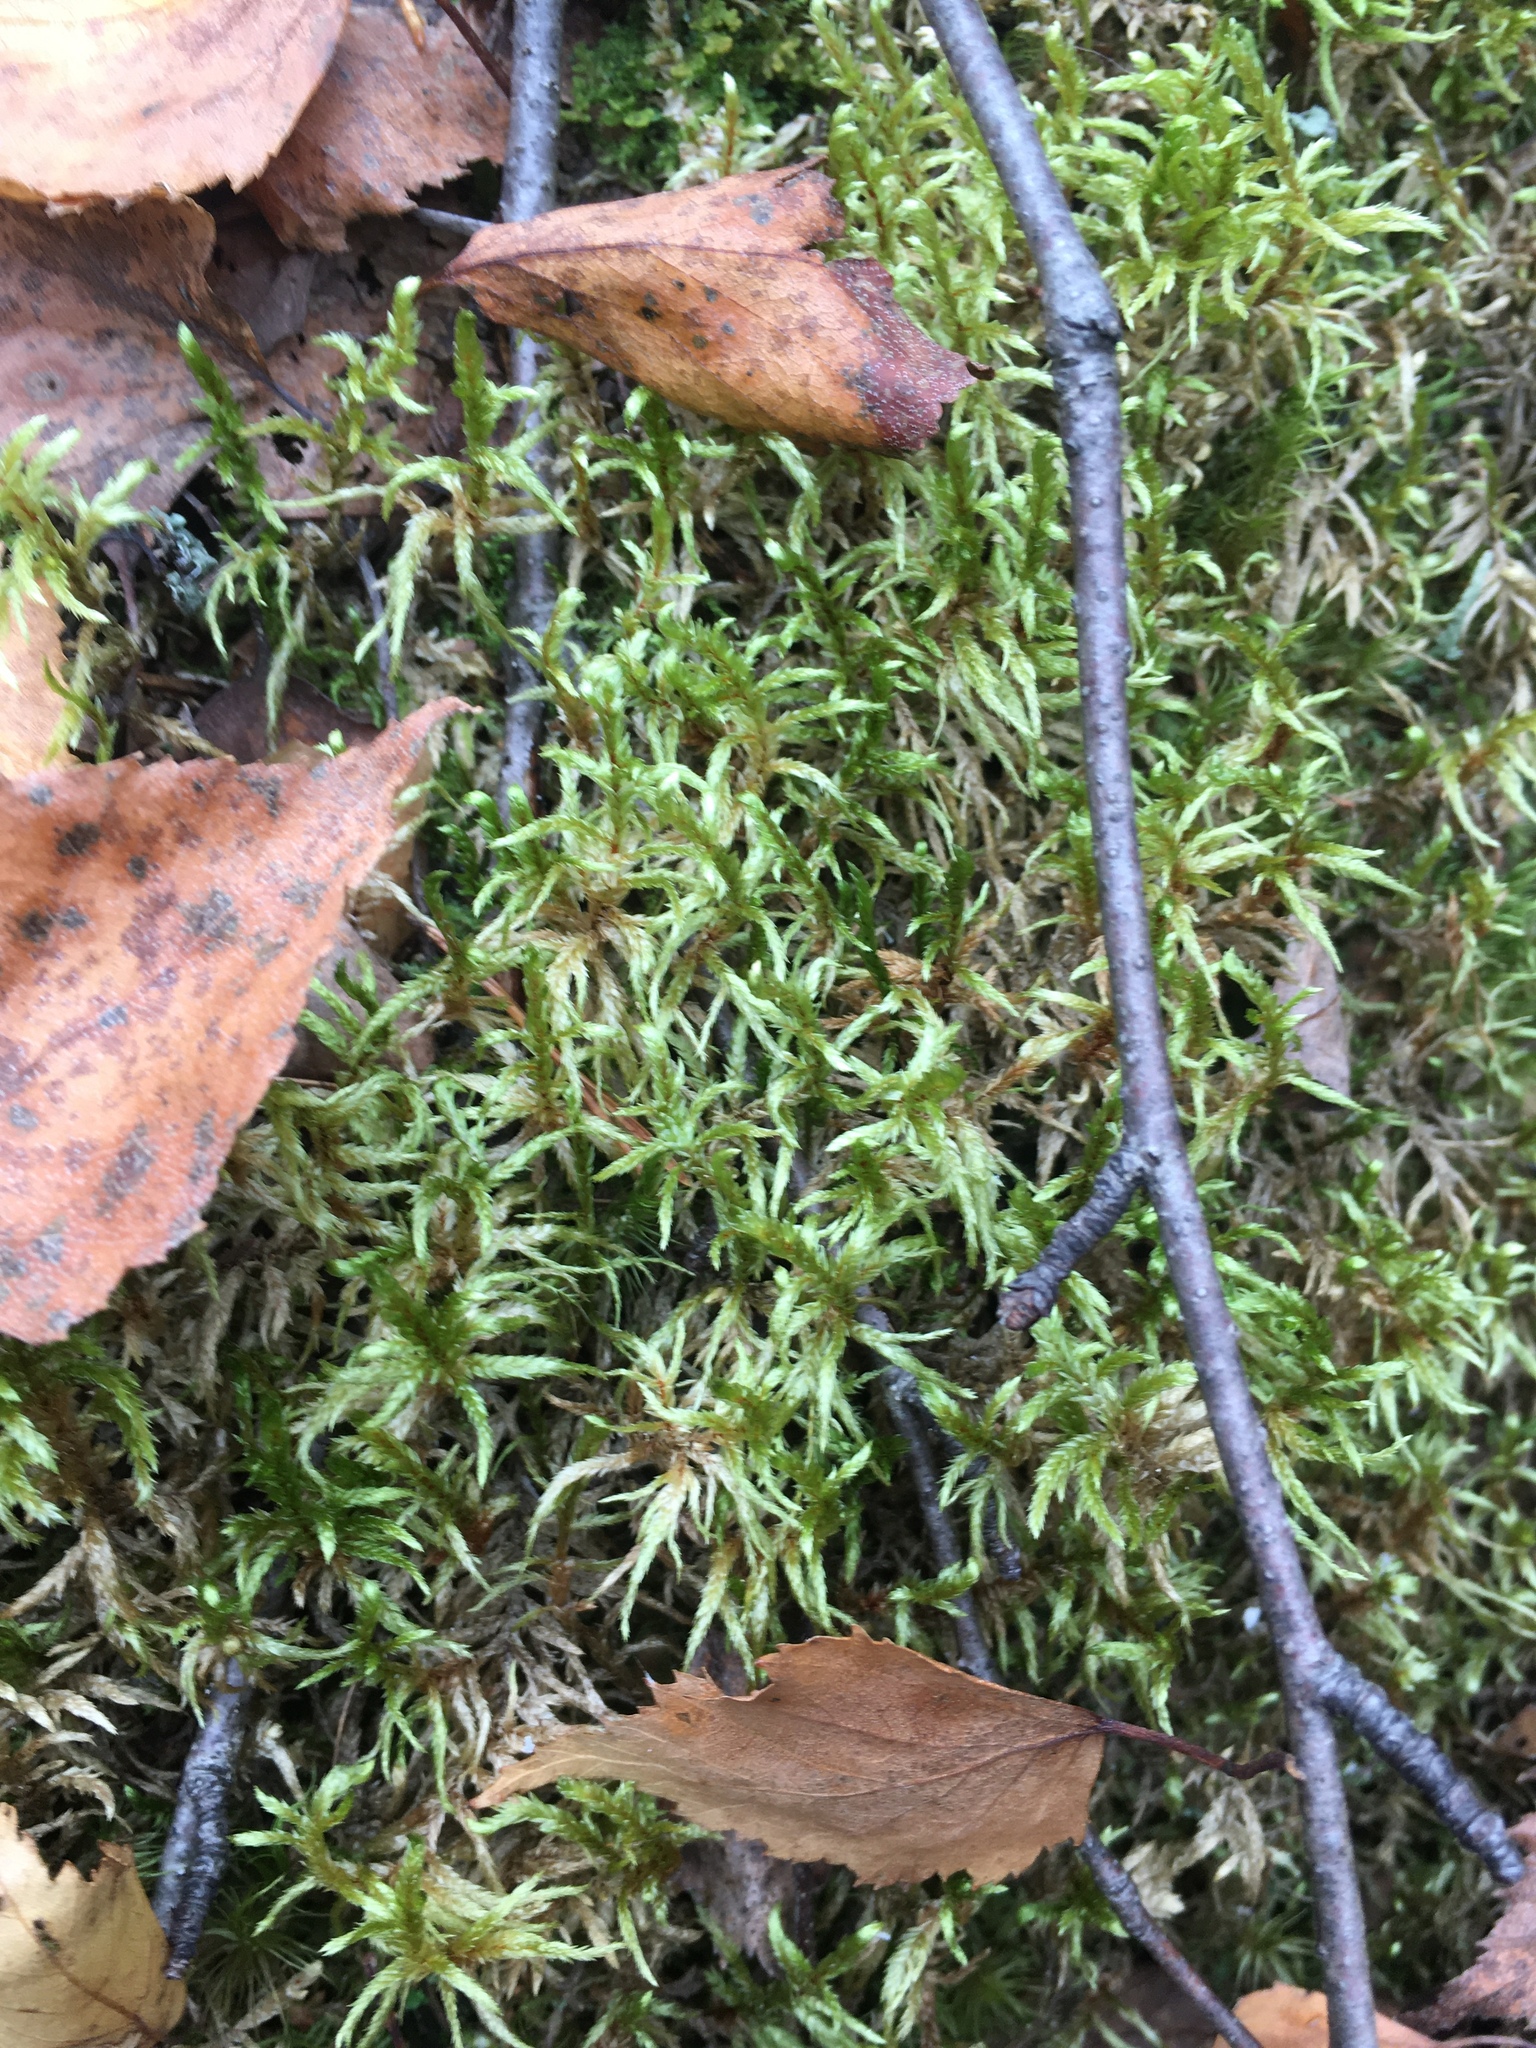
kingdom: Plantae
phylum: Bryophyta
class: Bryopsida
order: Hypnales
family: Hylocomiaceae
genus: Pleurozium
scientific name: Pleurozium schreberi
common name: Red-stemmed feather moss
